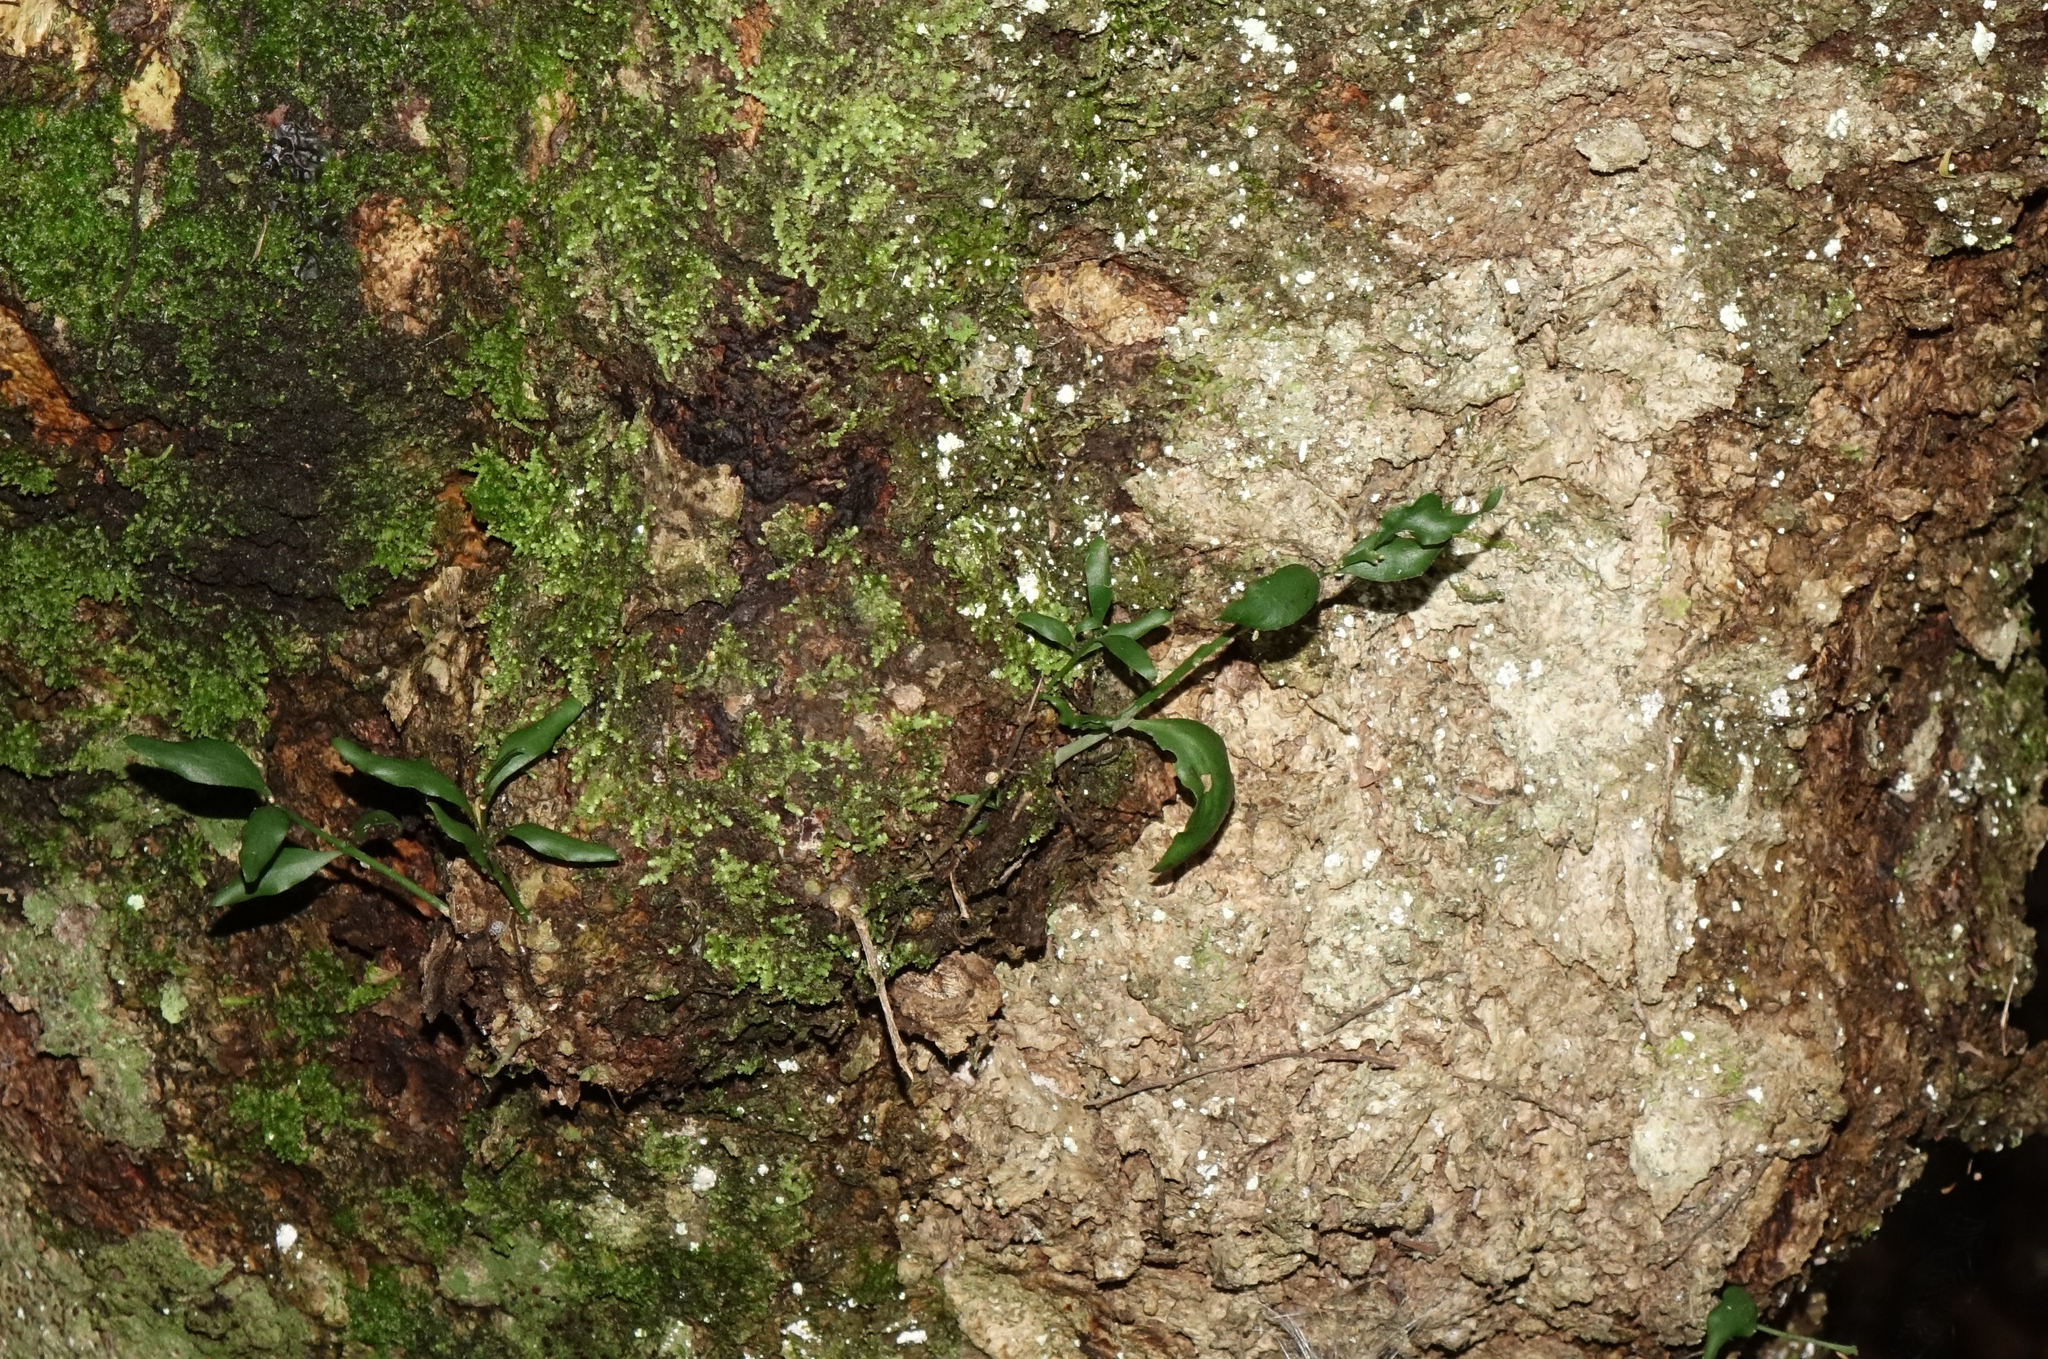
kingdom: Plantae
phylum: Tracheophyta
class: Magnoliopsida
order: Santalales
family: Loranthaceae
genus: Tupeia
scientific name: Tupeia antarctica
